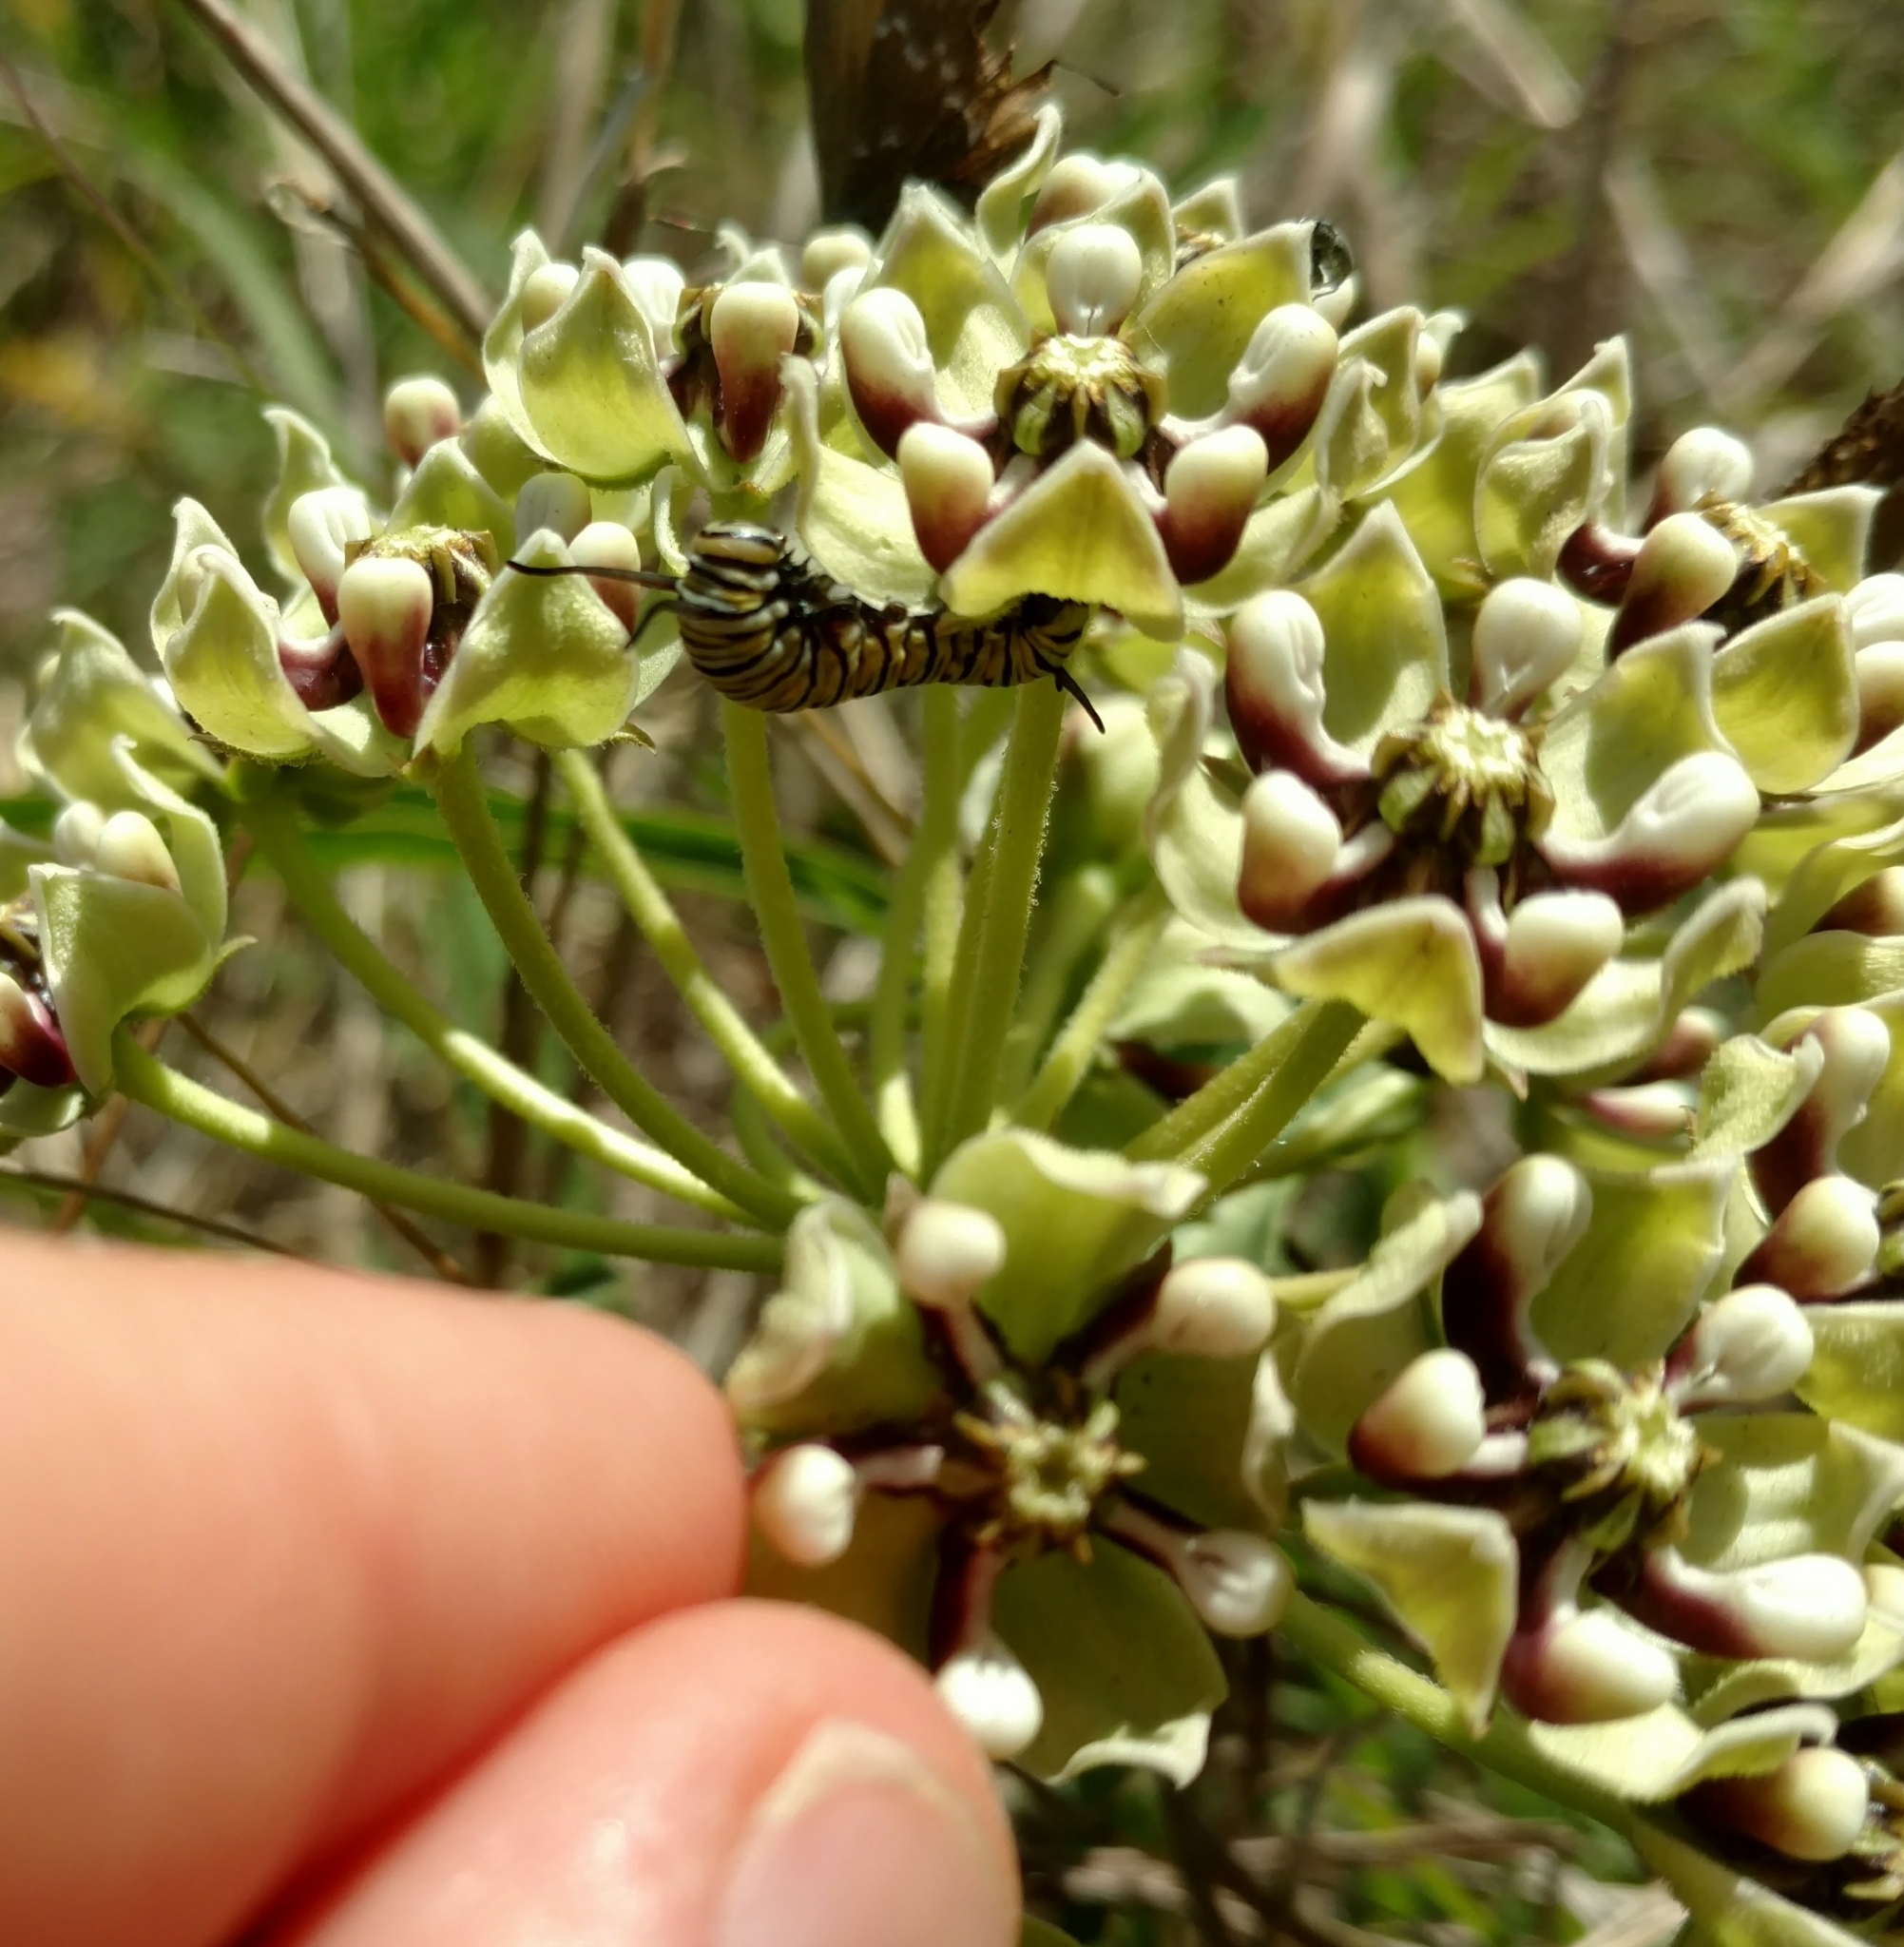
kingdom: Animalia
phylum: Arthropoda
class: Insecta
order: Lepidoptera
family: Nymphalidae
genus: Danaus
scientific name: Danaus plexippus
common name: Monarch
